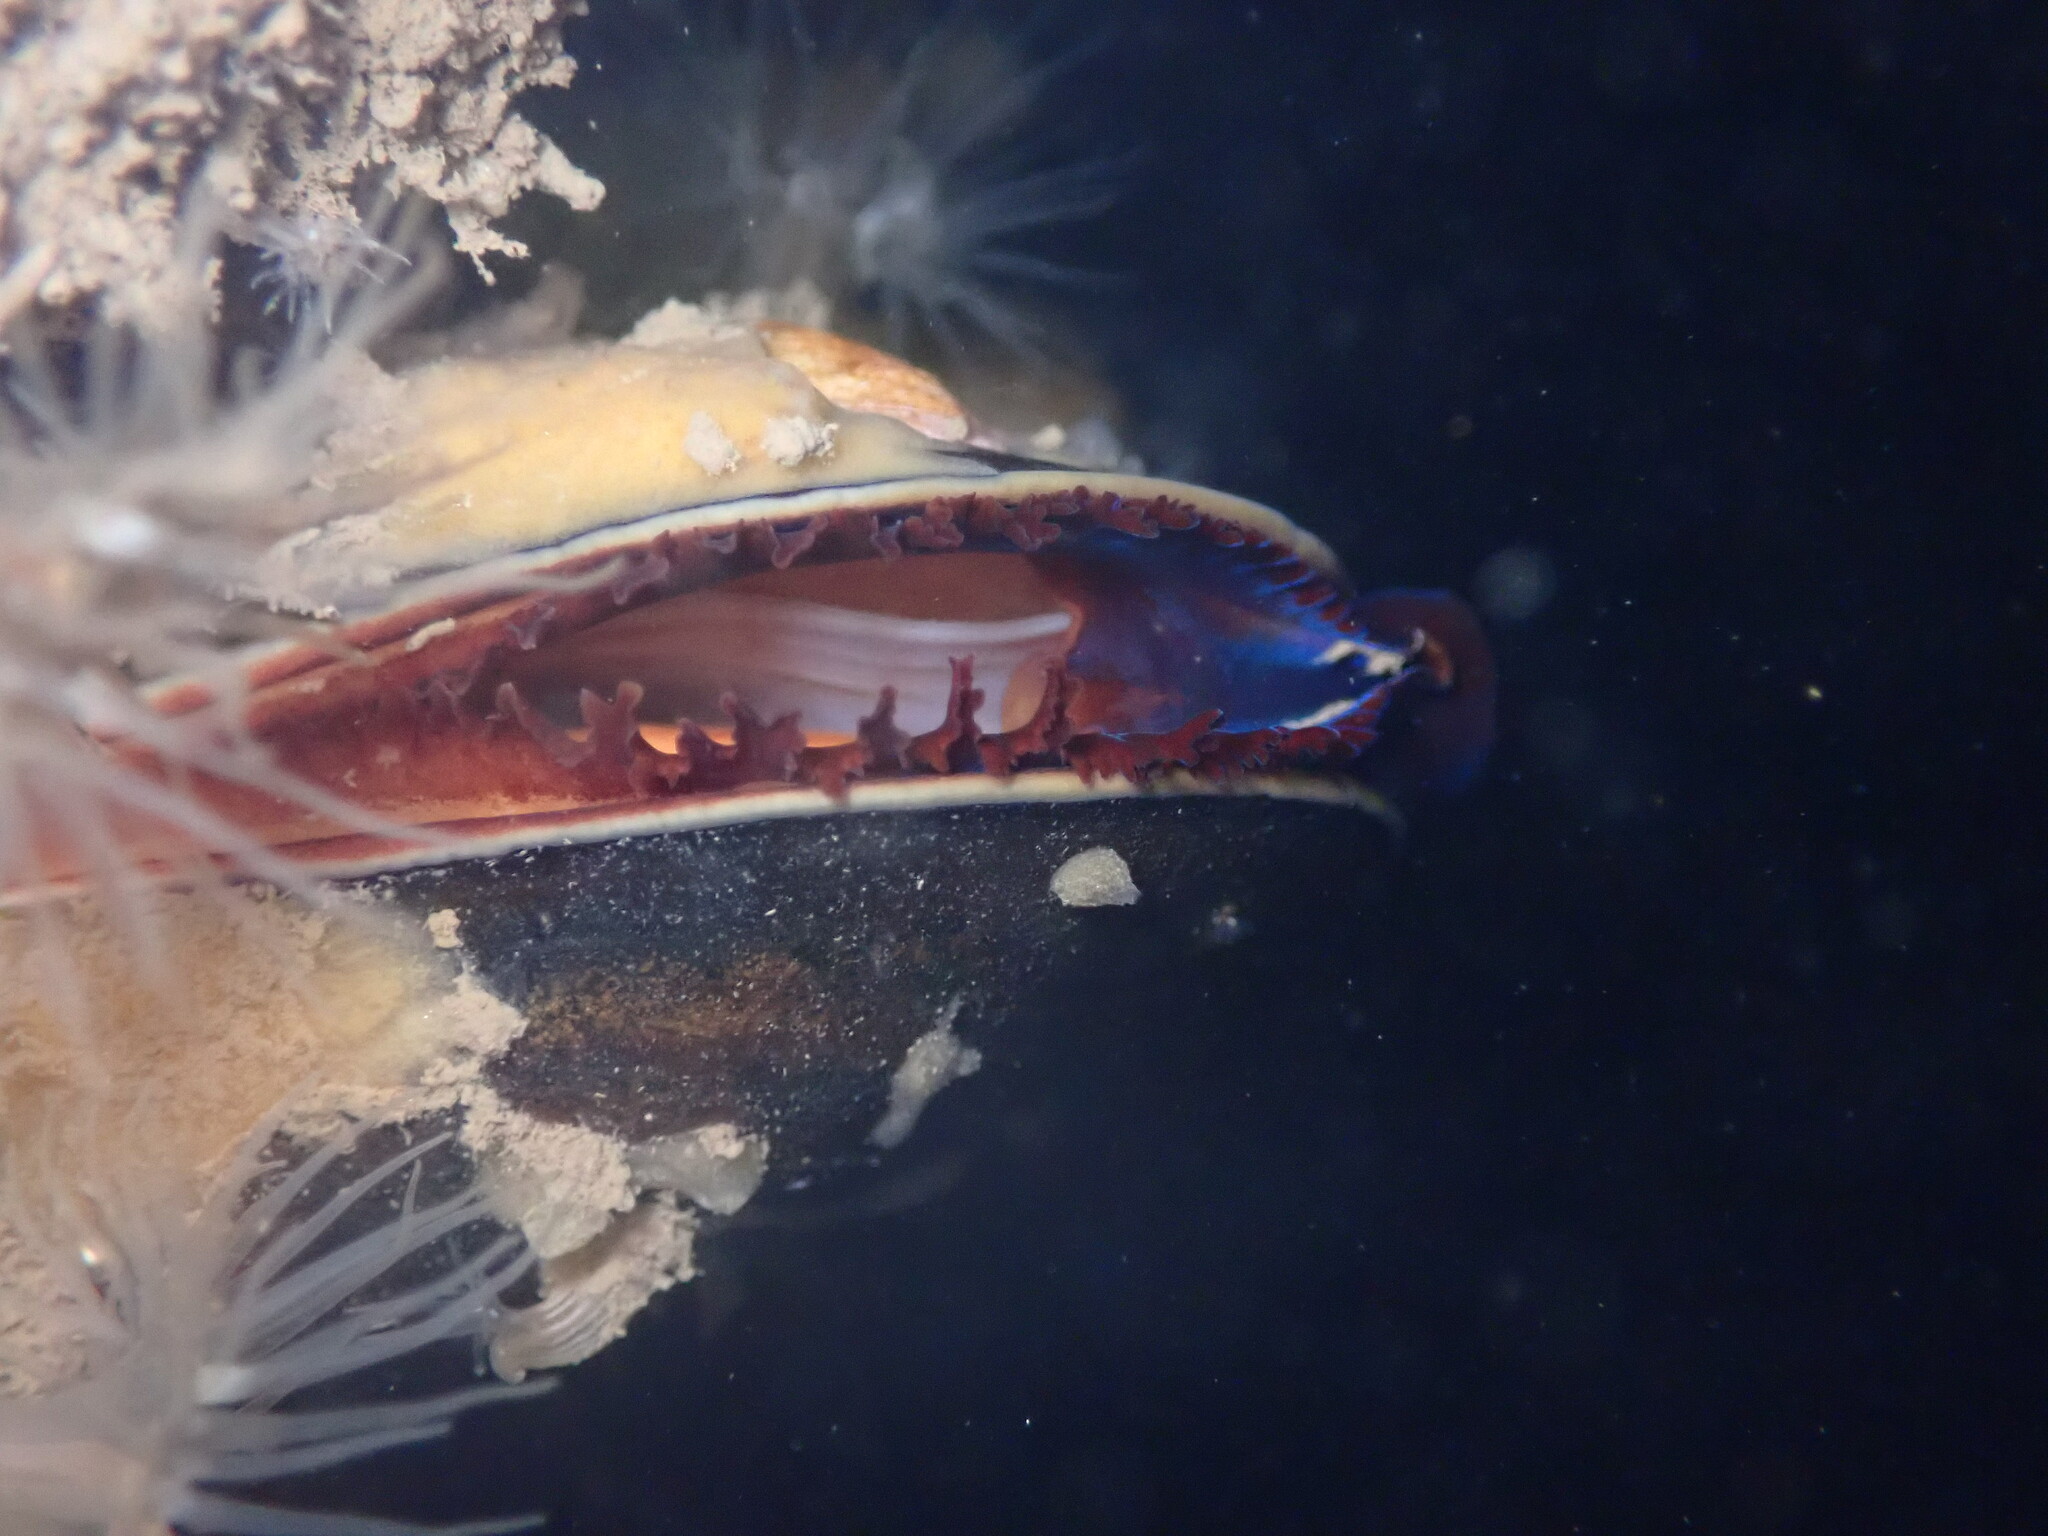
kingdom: Animalia
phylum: Mollusca
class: Bivalvia
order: Mytilida
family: Mytilidae
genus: Mytilus
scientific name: Mytilus
